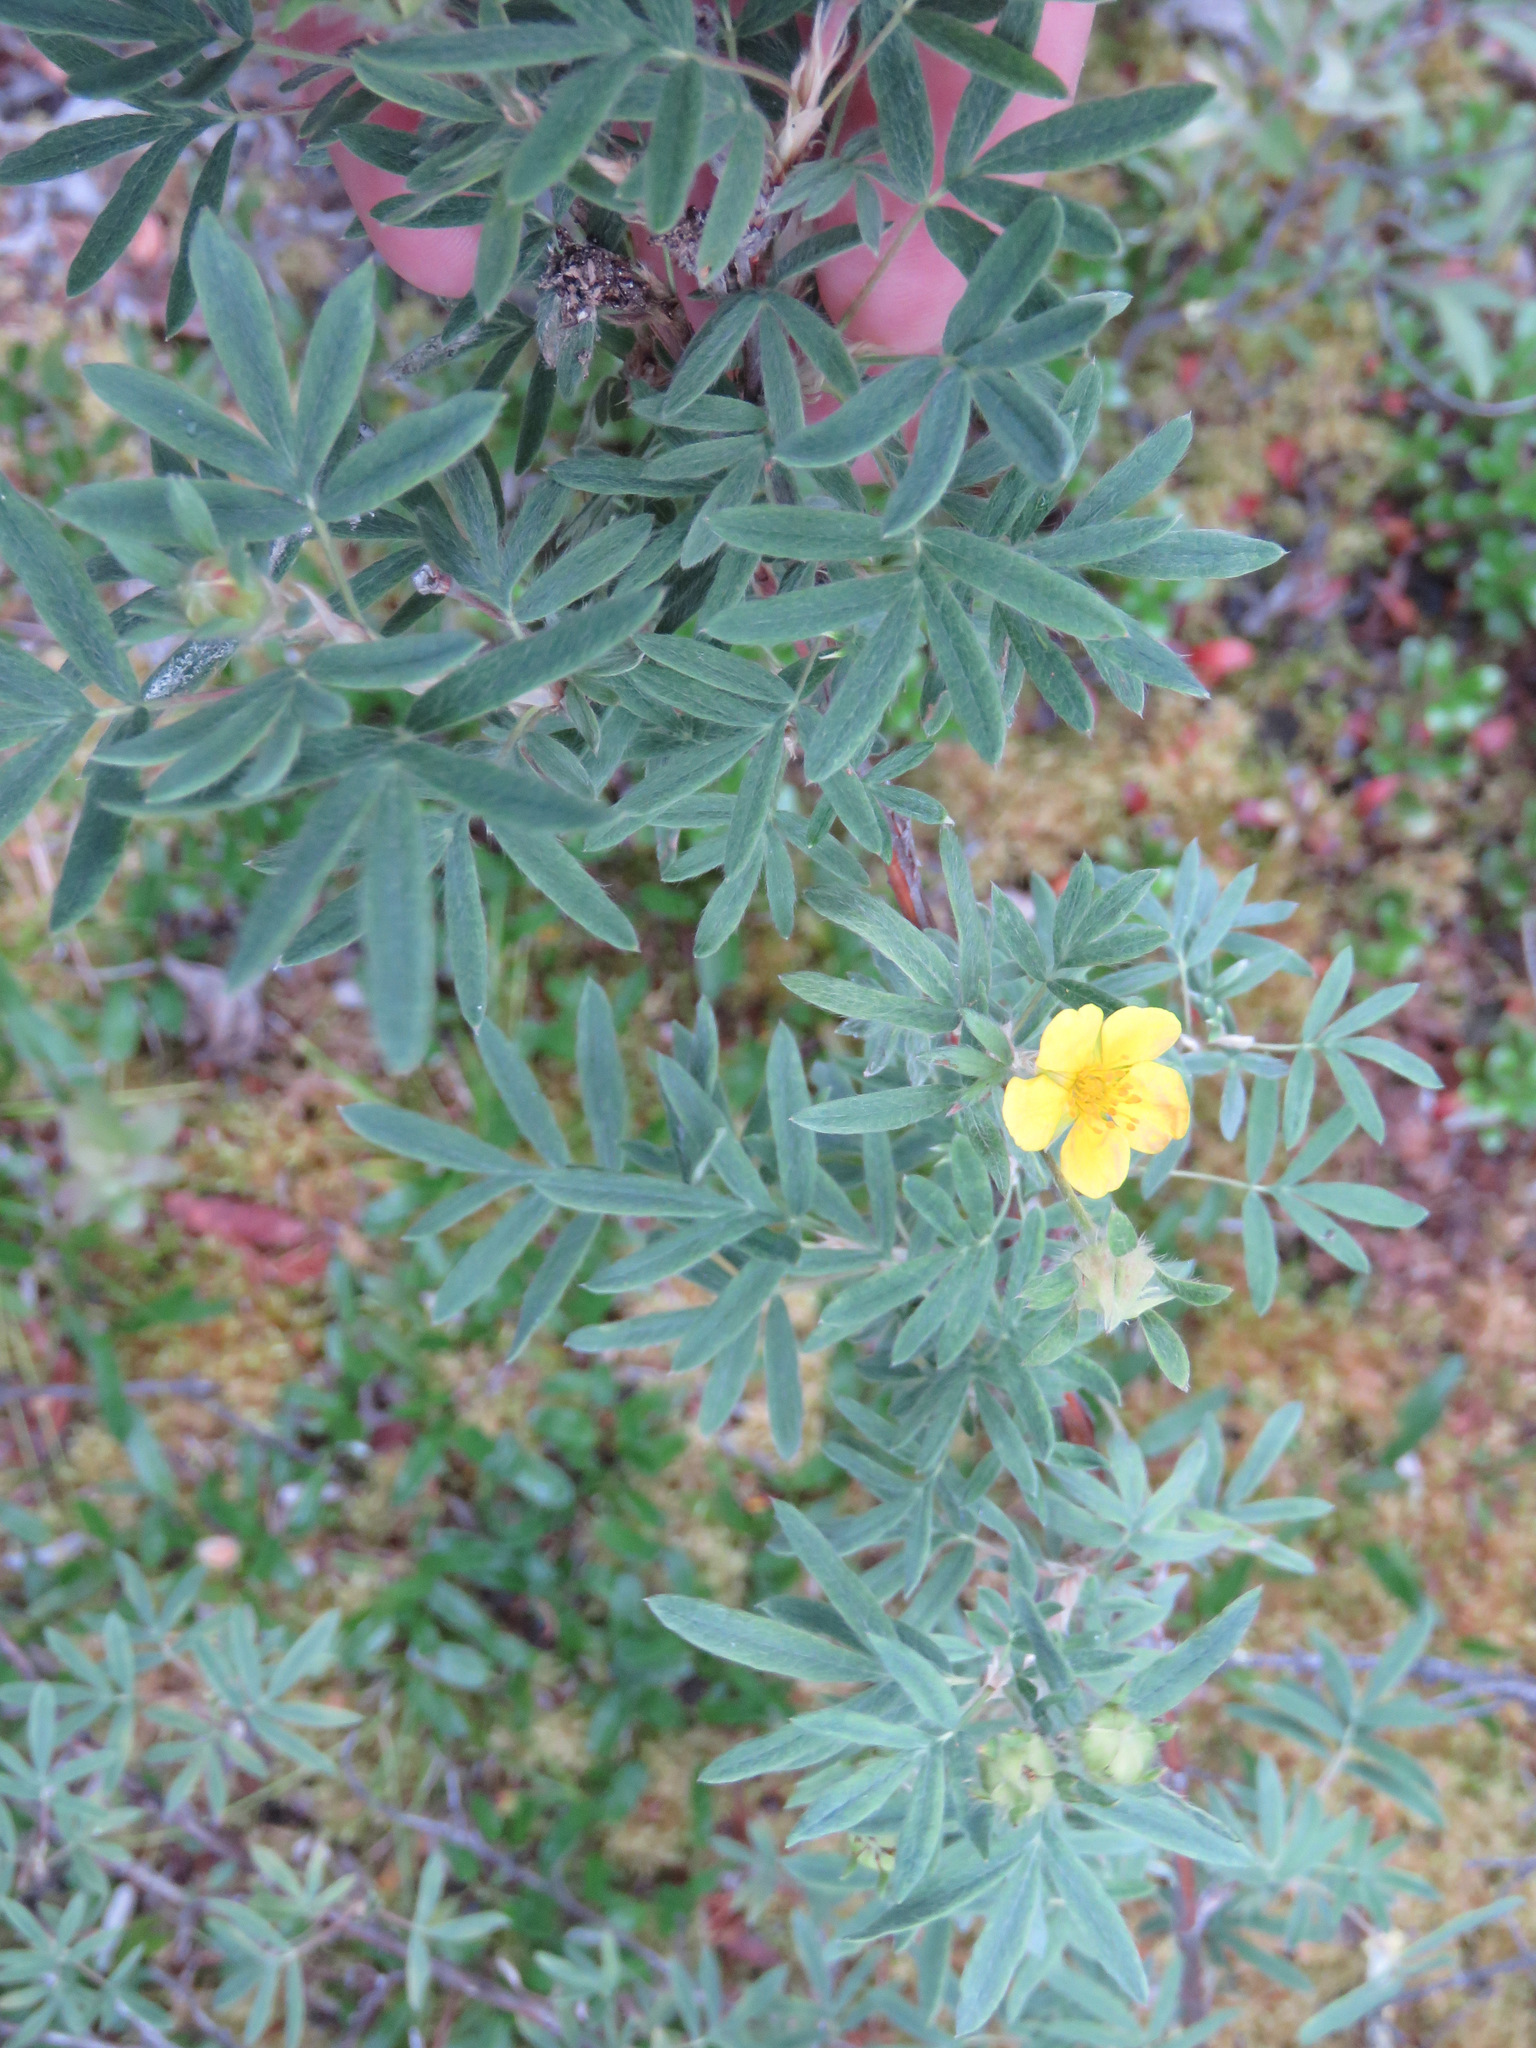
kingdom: Plantae
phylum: Tracheophyta
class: Magnoliopsida
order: Rosales
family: Rosaceae
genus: Dasiphora
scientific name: Dasiphora fruticosa
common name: Shrubby cinquefoil
